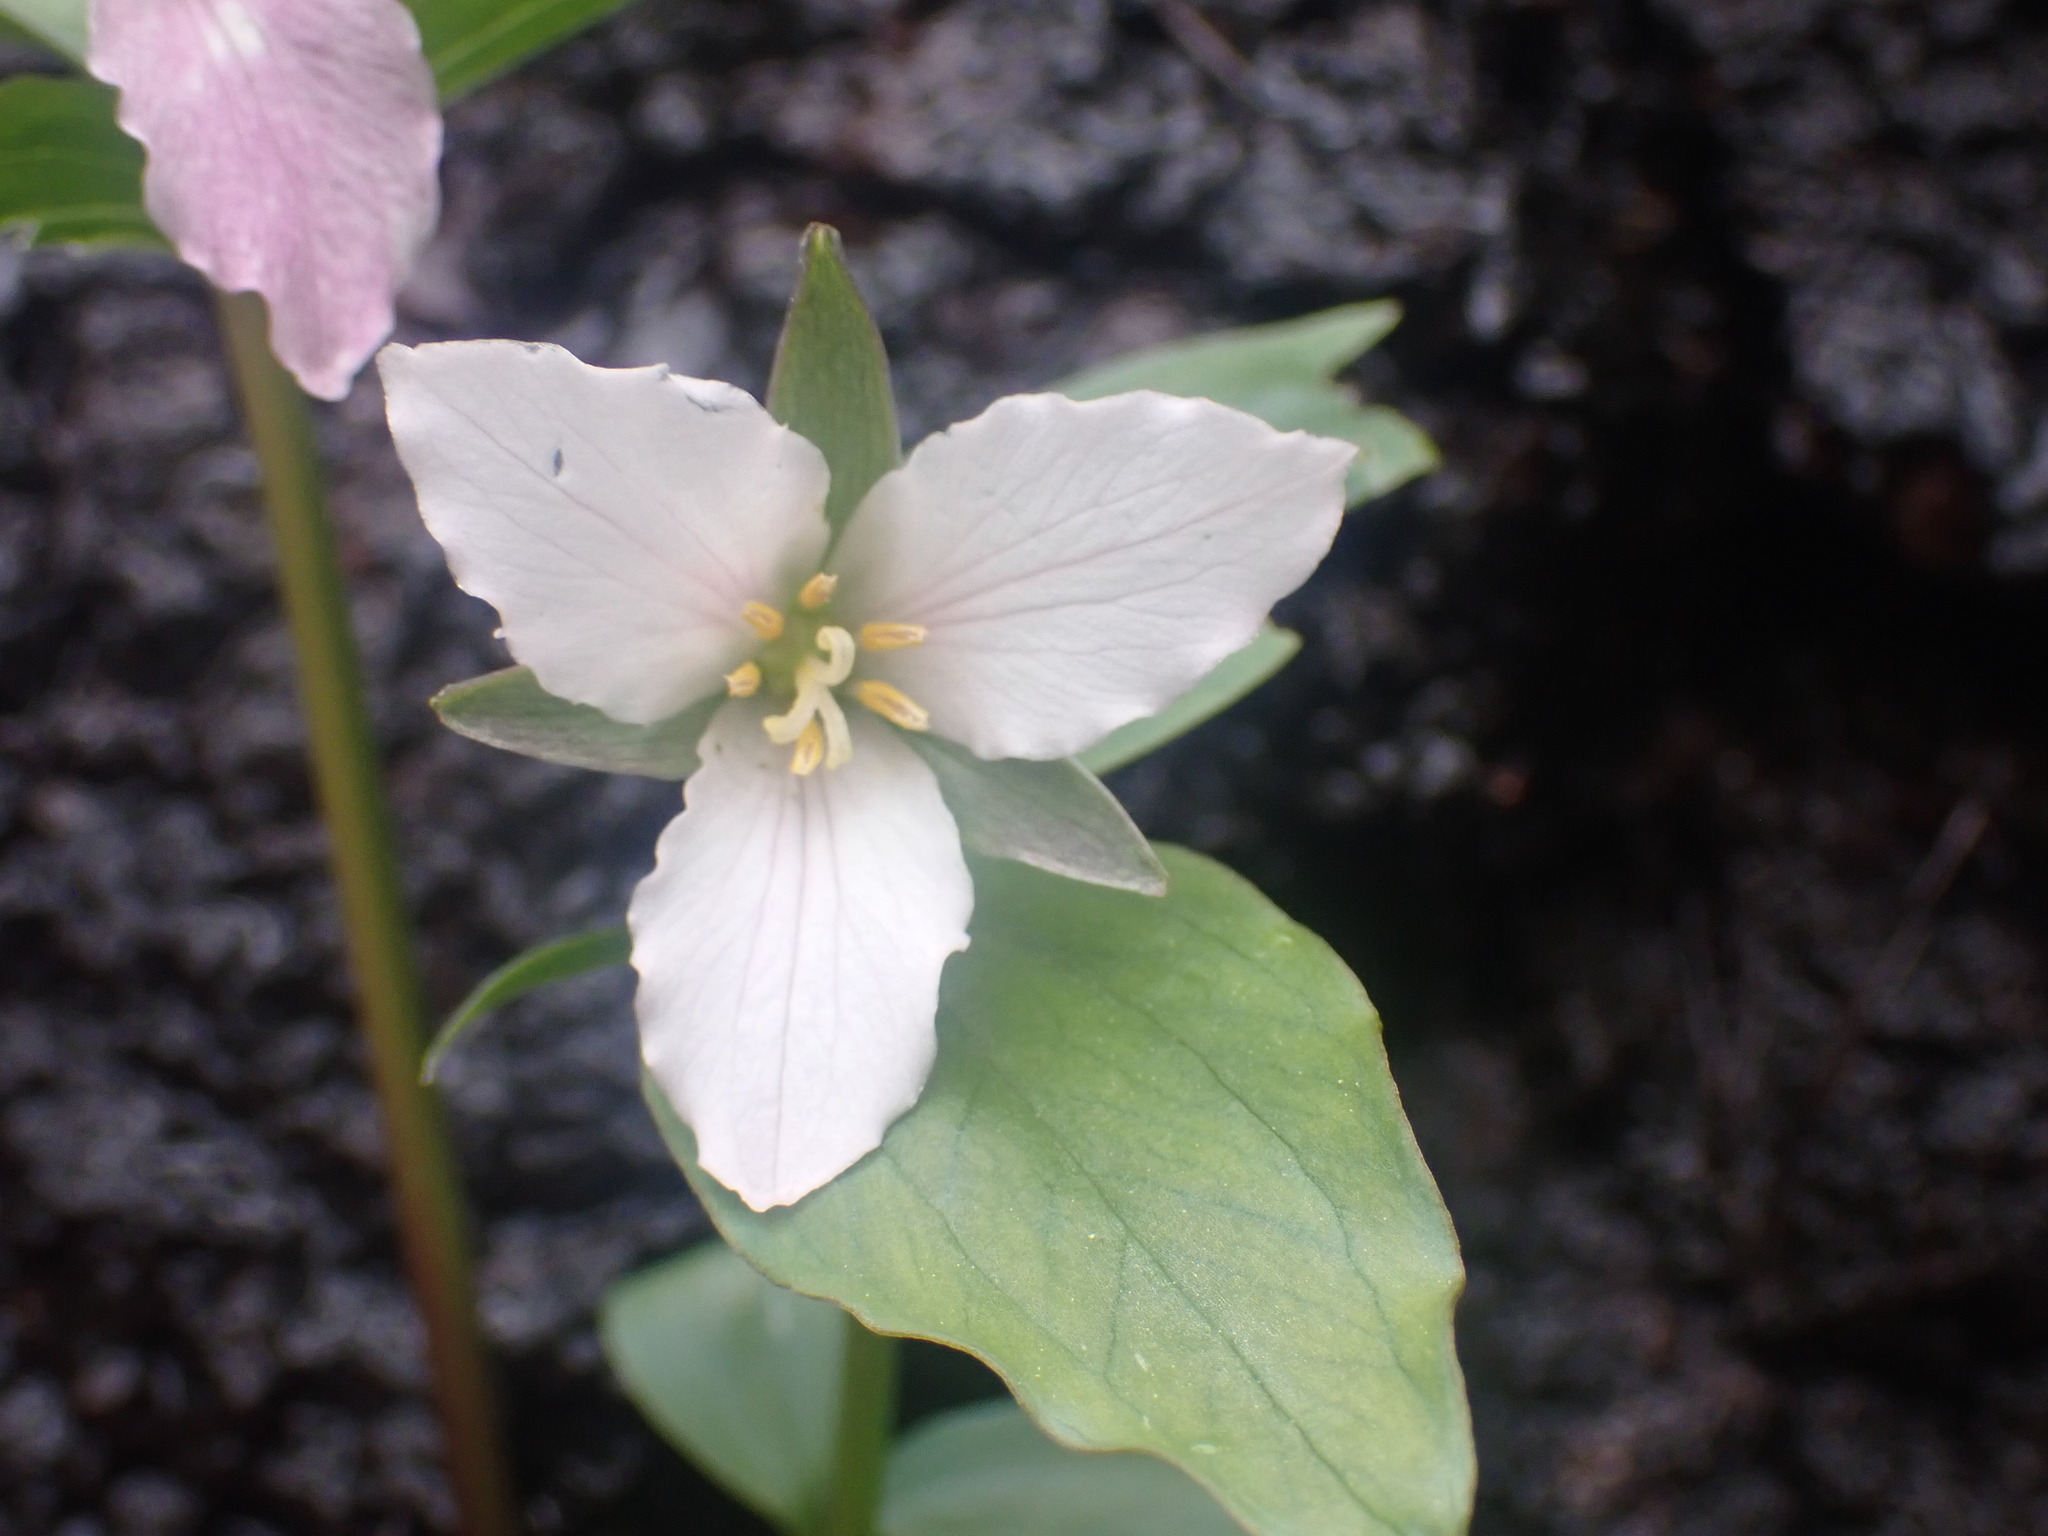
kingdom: Plantae
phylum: Tracheophyta
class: Liliopsida
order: Liliales
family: Melanthiaceae
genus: Trillium
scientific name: Trillium hibbersonii
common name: Hibberson's trillium
